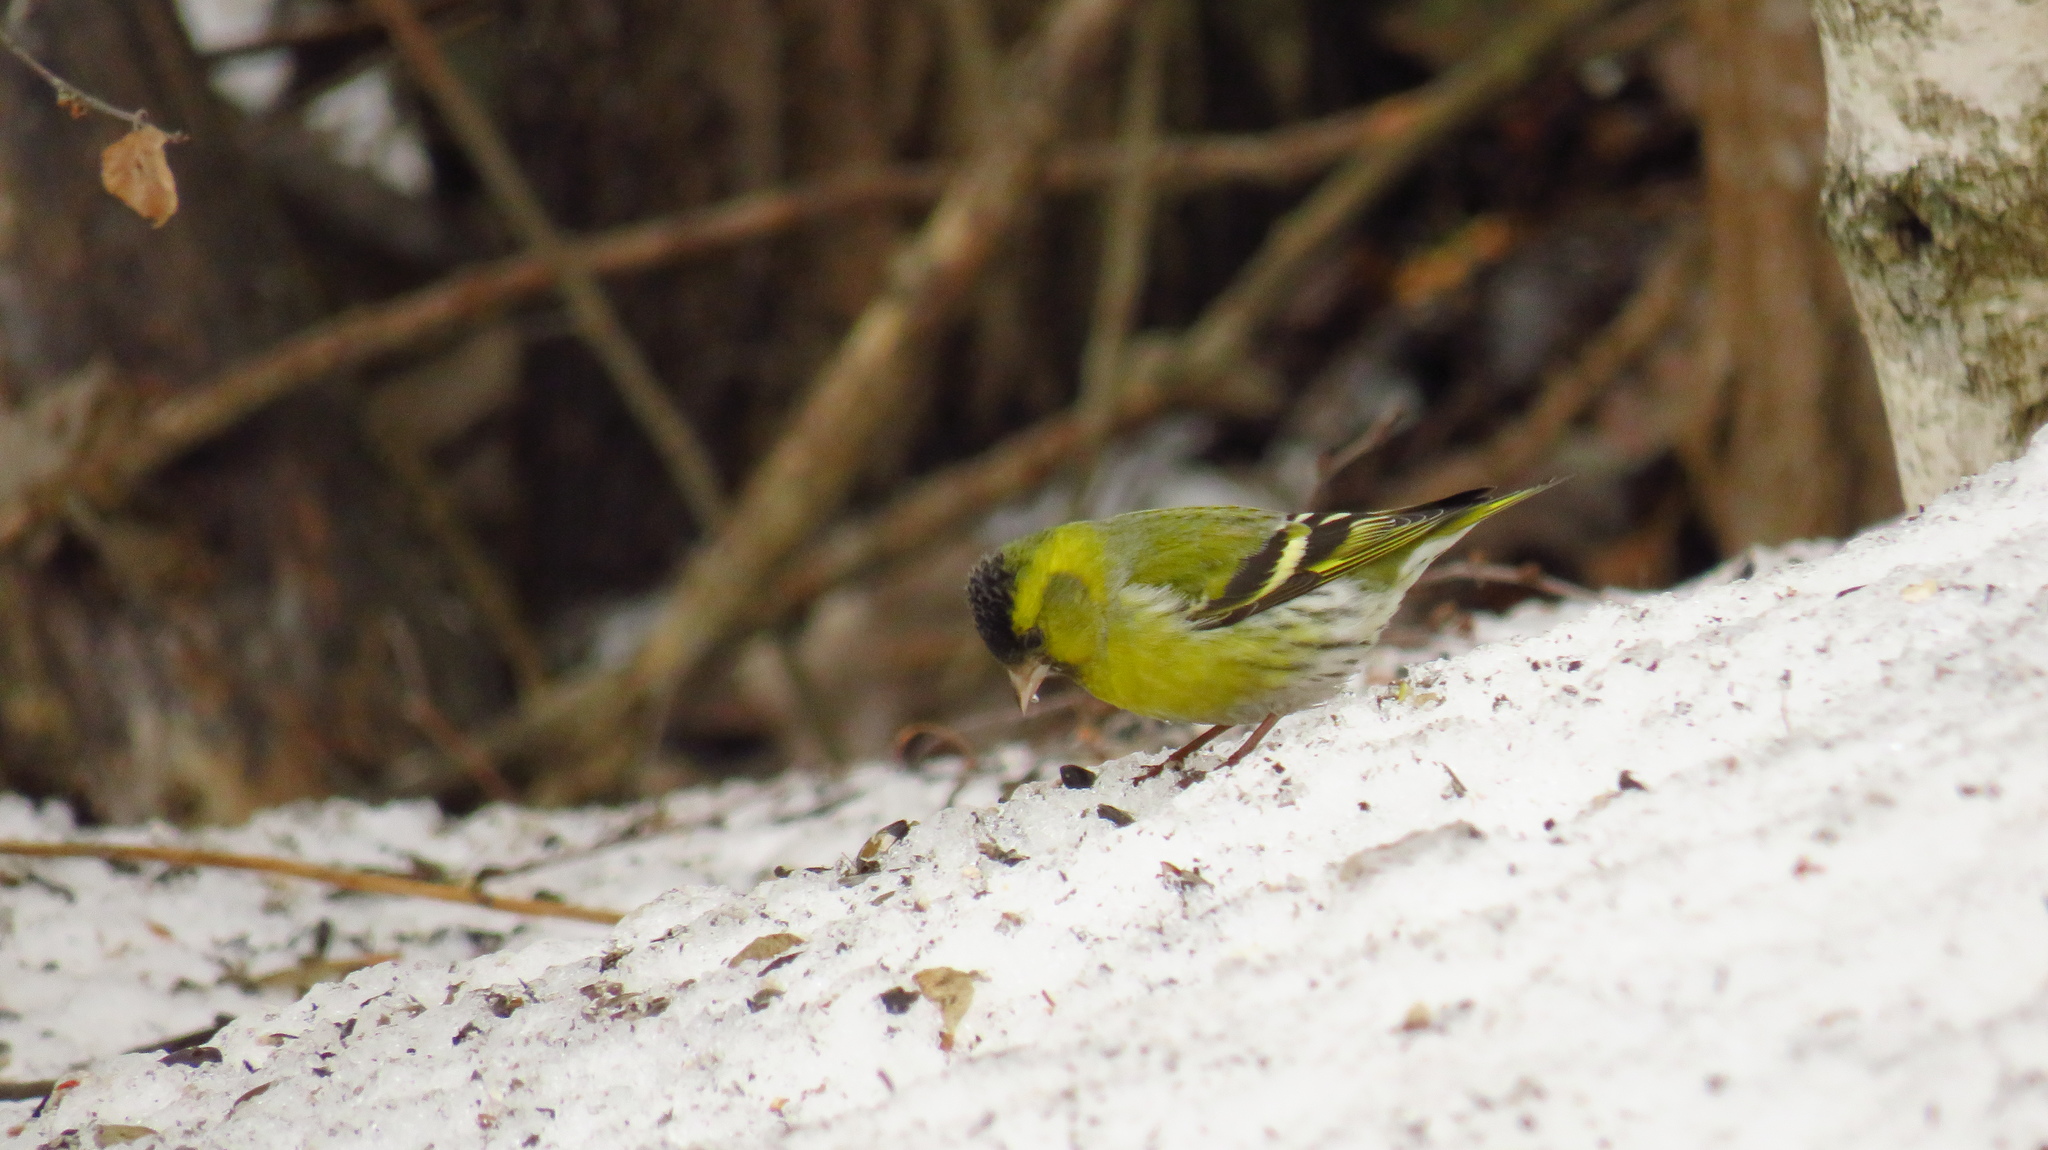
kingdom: Animalia
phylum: Chordata
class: Aves
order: Passeriformes
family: Fringillidae
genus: Spinus
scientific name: Spinus spinus
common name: Eurasian siskin
